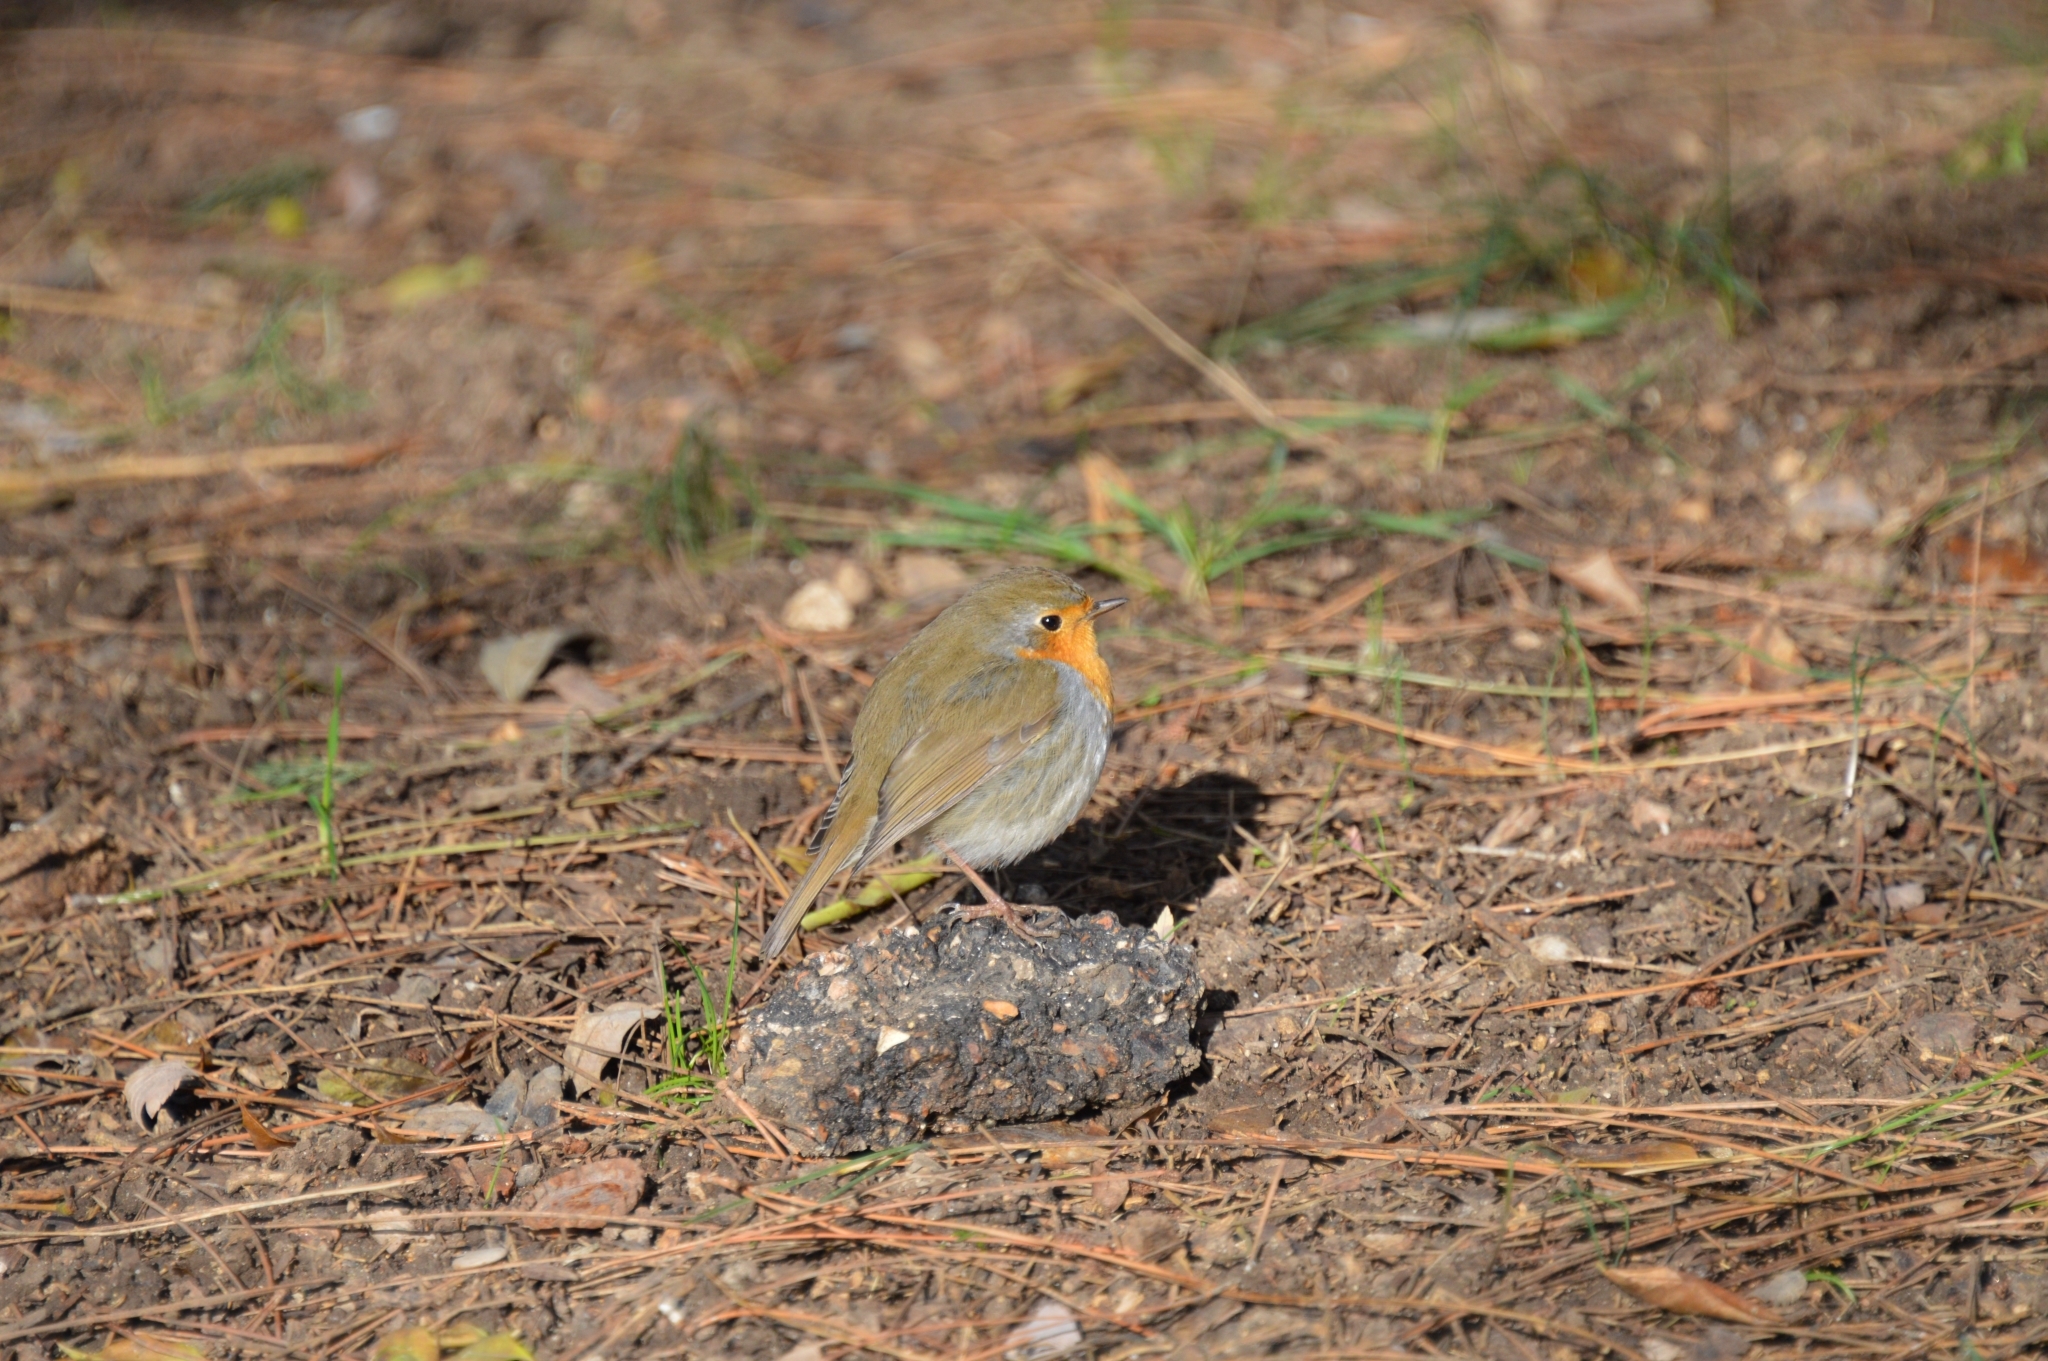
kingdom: Animalia
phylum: Chordata
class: Aves
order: Passeriformes
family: Muscicapidae
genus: Erithacus
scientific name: Erithacus rubecula
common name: European robin
